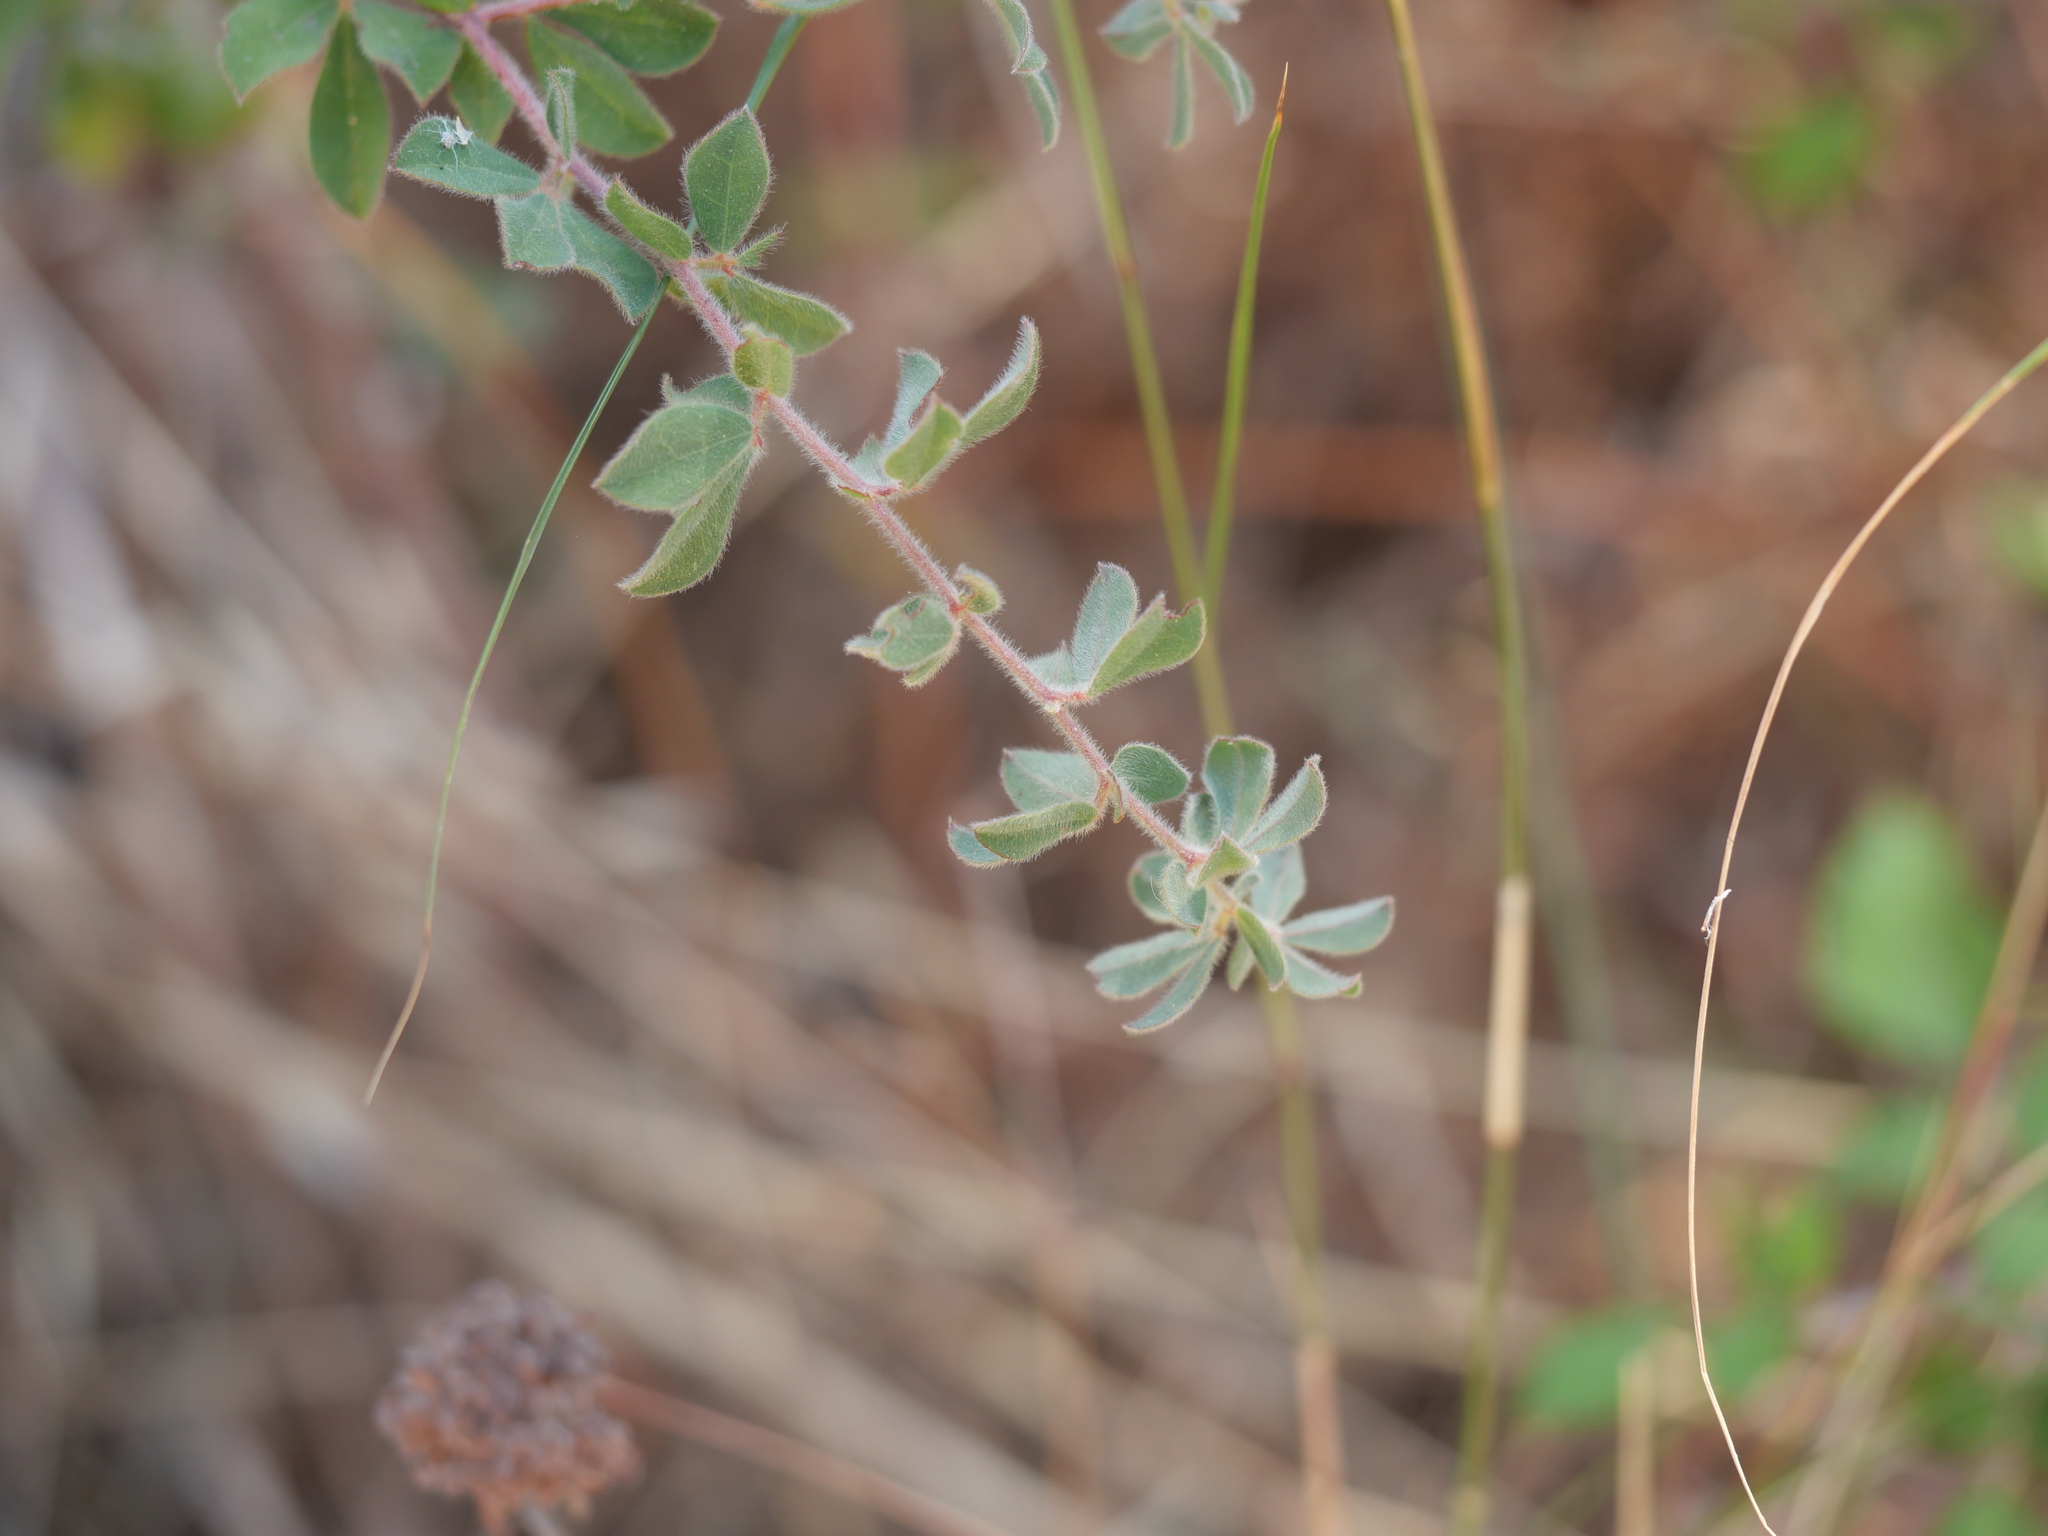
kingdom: Plantae
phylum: Tracheophyta
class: Magnoliopsida
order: Fabales
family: Fabaceae
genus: Lotus
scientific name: Lotus hirsutus
